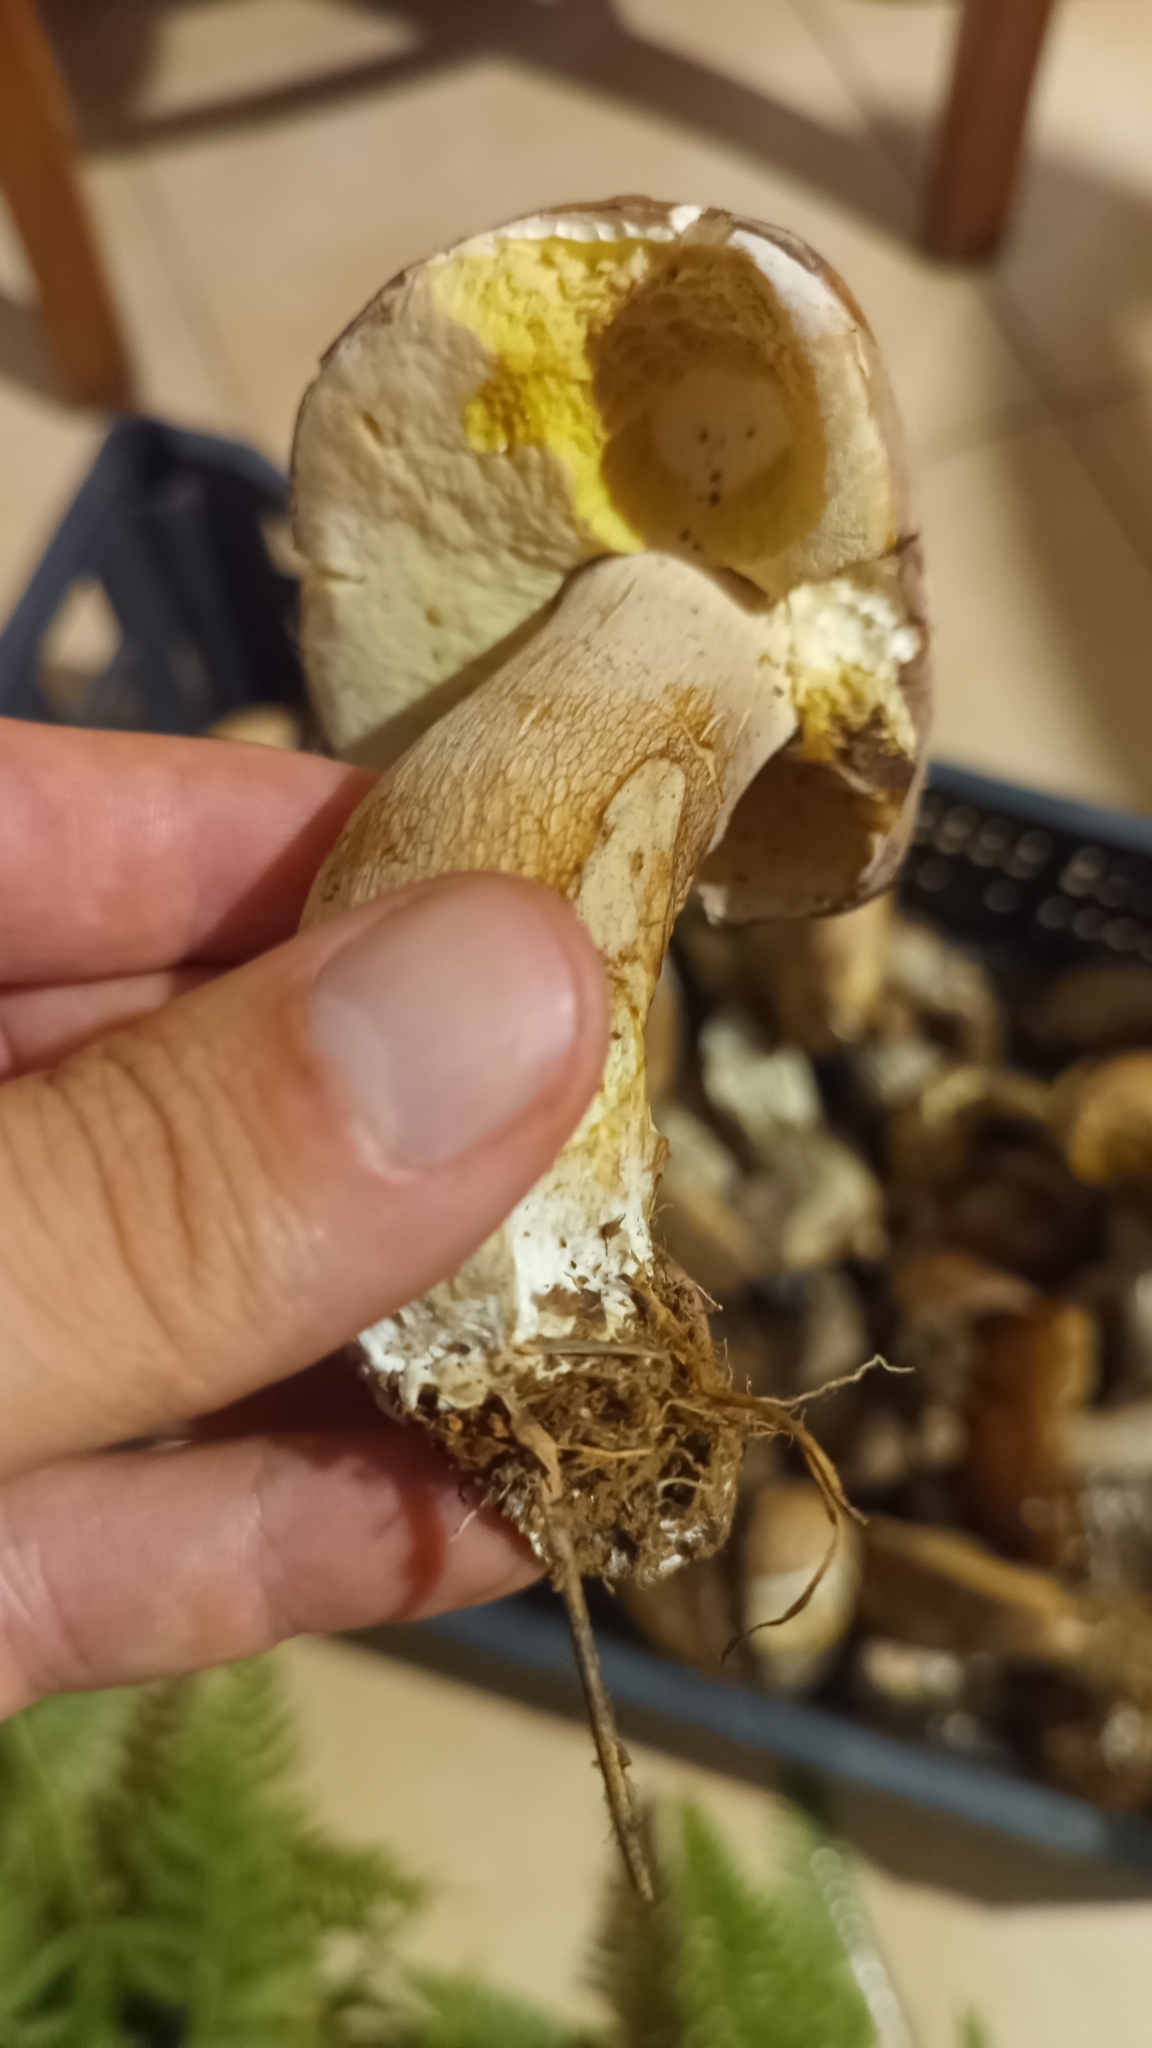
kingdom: Fungi
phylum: Basidiomycota
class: Agaricomycetes
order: Boletales
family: Boletaceae
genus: Boletus
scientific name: Boletus edulis
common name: Cep
